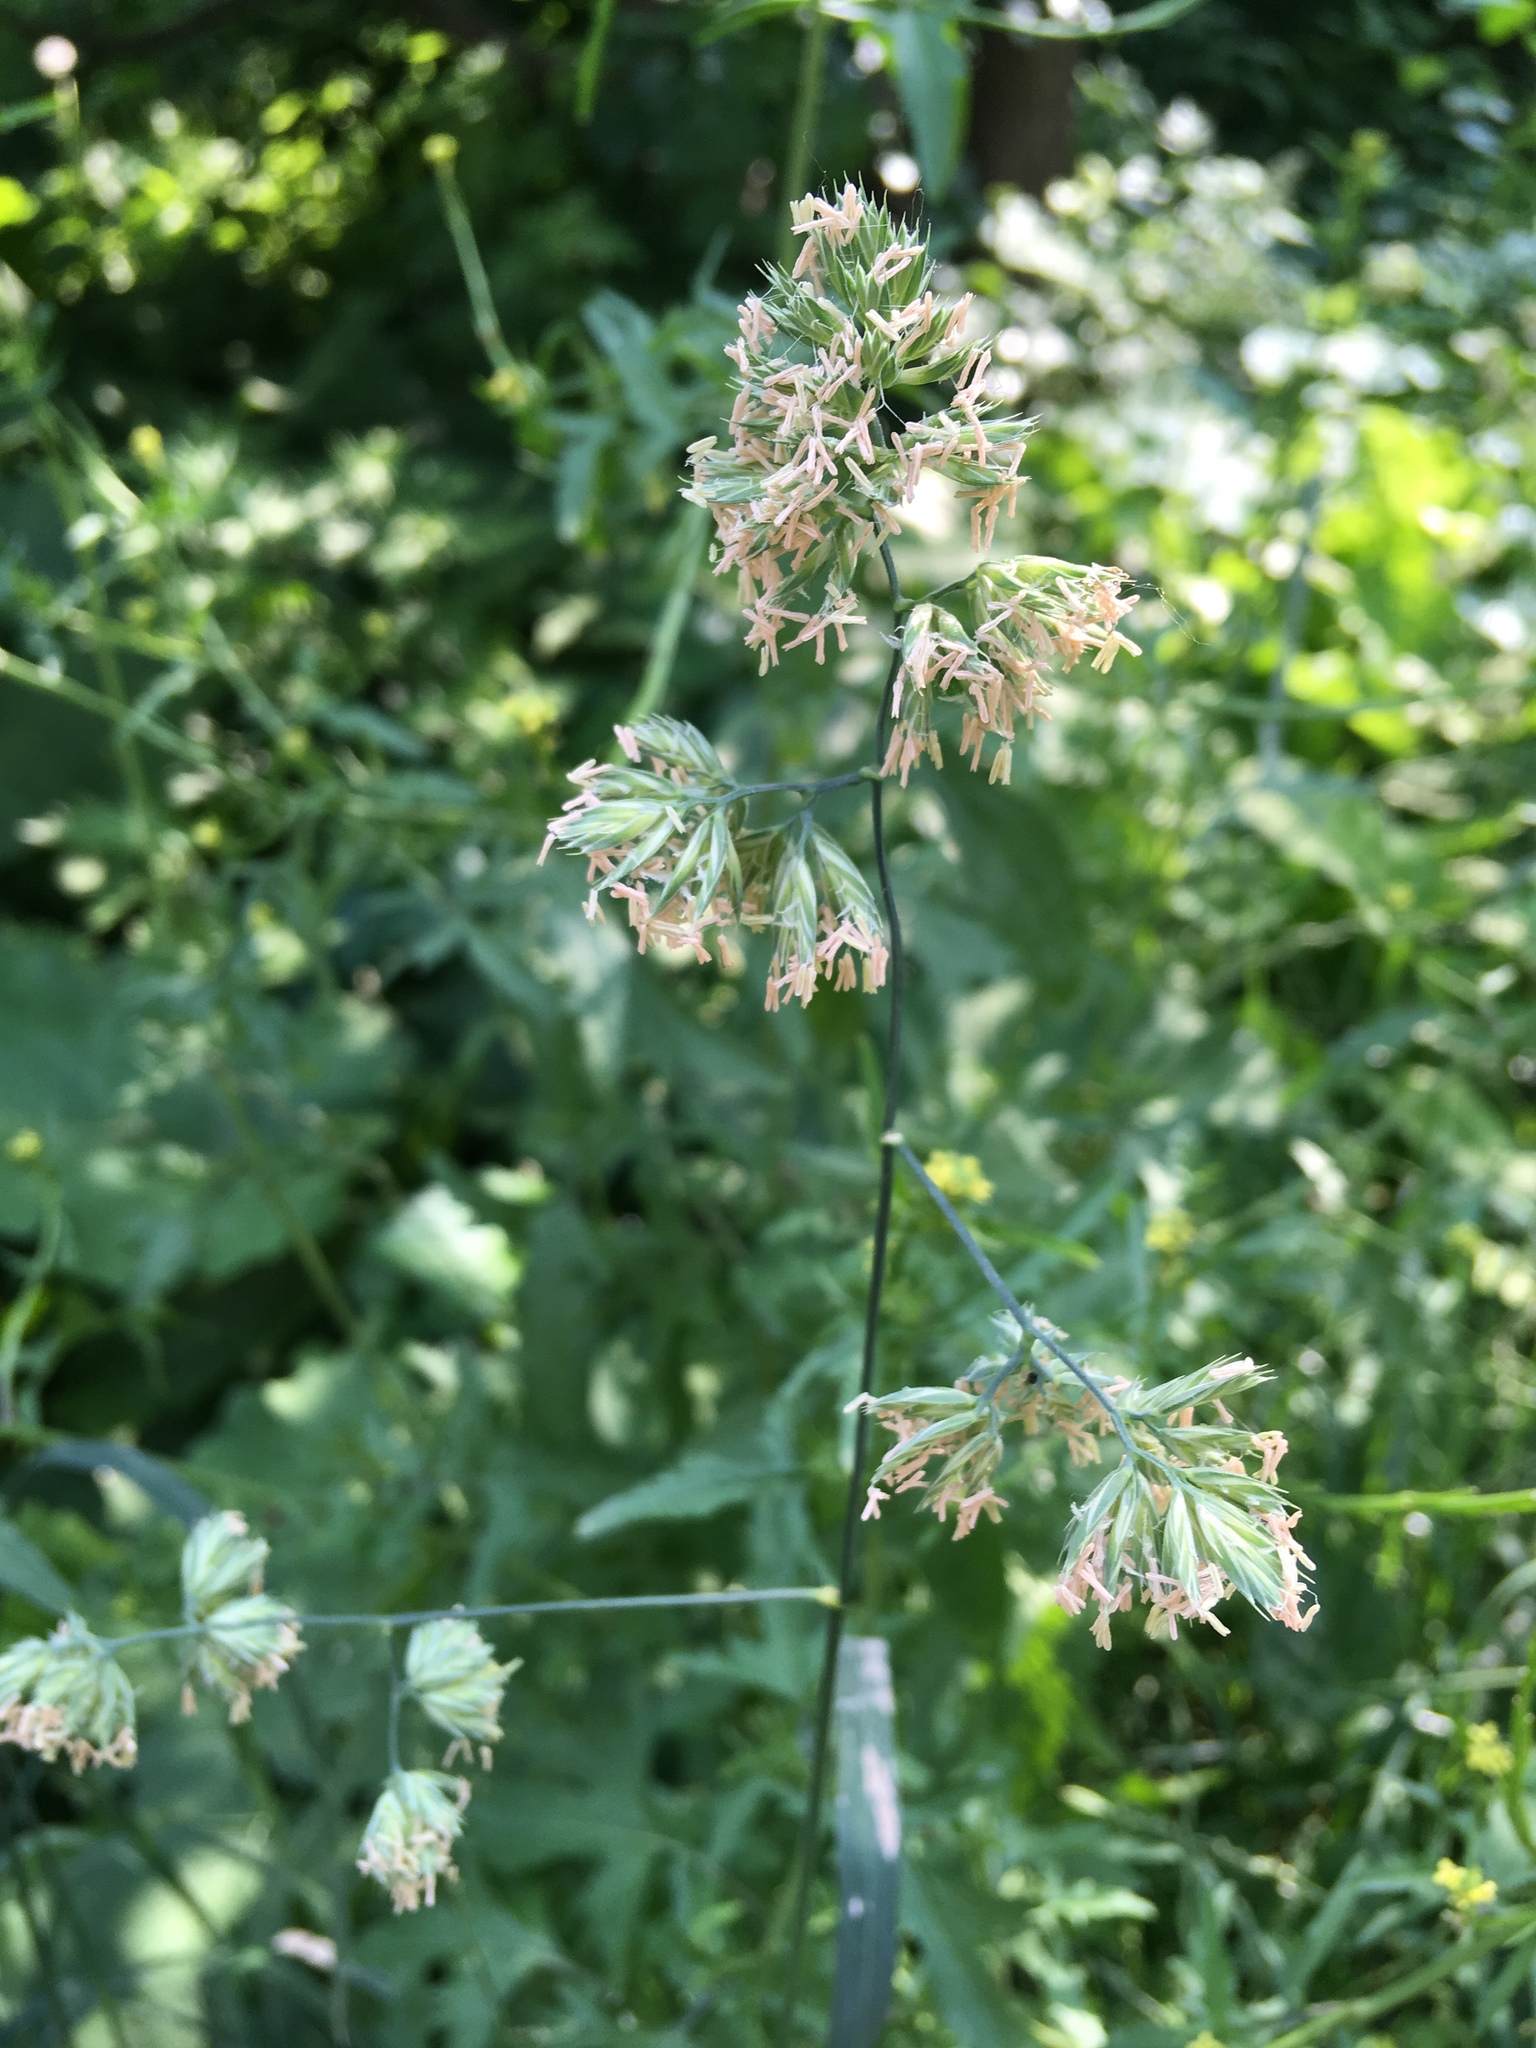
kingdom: Plantae
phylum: Tracheophyta
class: Liliopsida
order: Poales
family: Poaceae
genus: Dactylis
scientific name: Dactylis glomerata
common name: Orchardgrass
